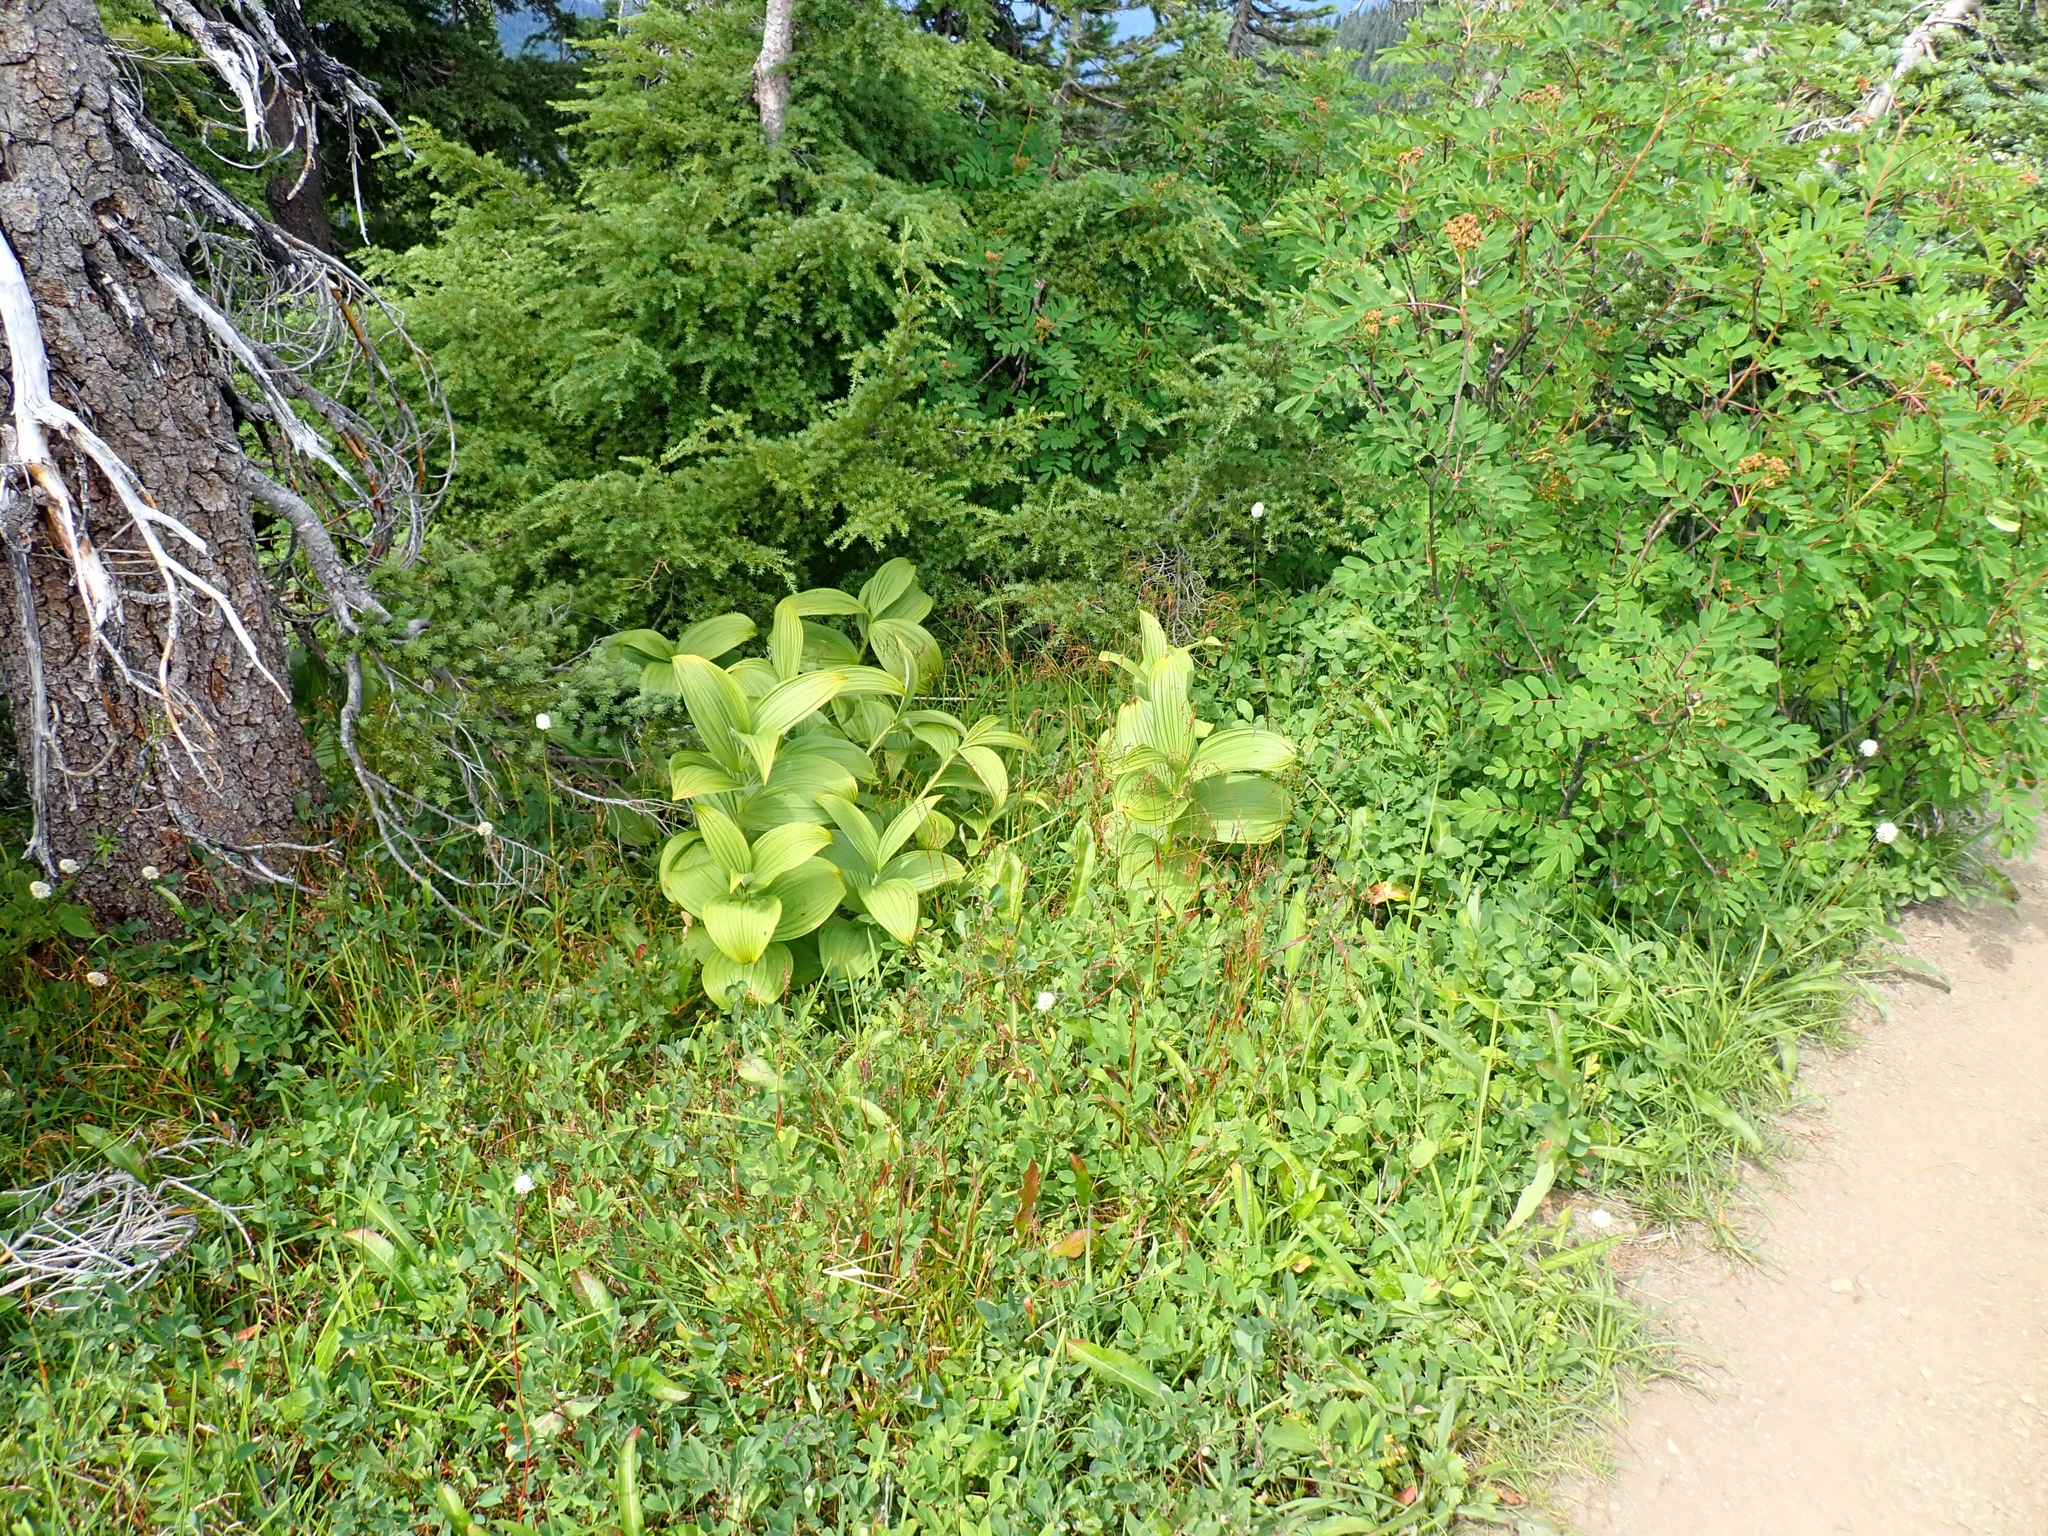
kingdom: Plantae
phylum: Tracheophyta
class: Liliopsida
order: Liliales
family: Melanthiaceae
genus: Veratrum
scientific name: Veratrum viride
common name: American false hellebore
